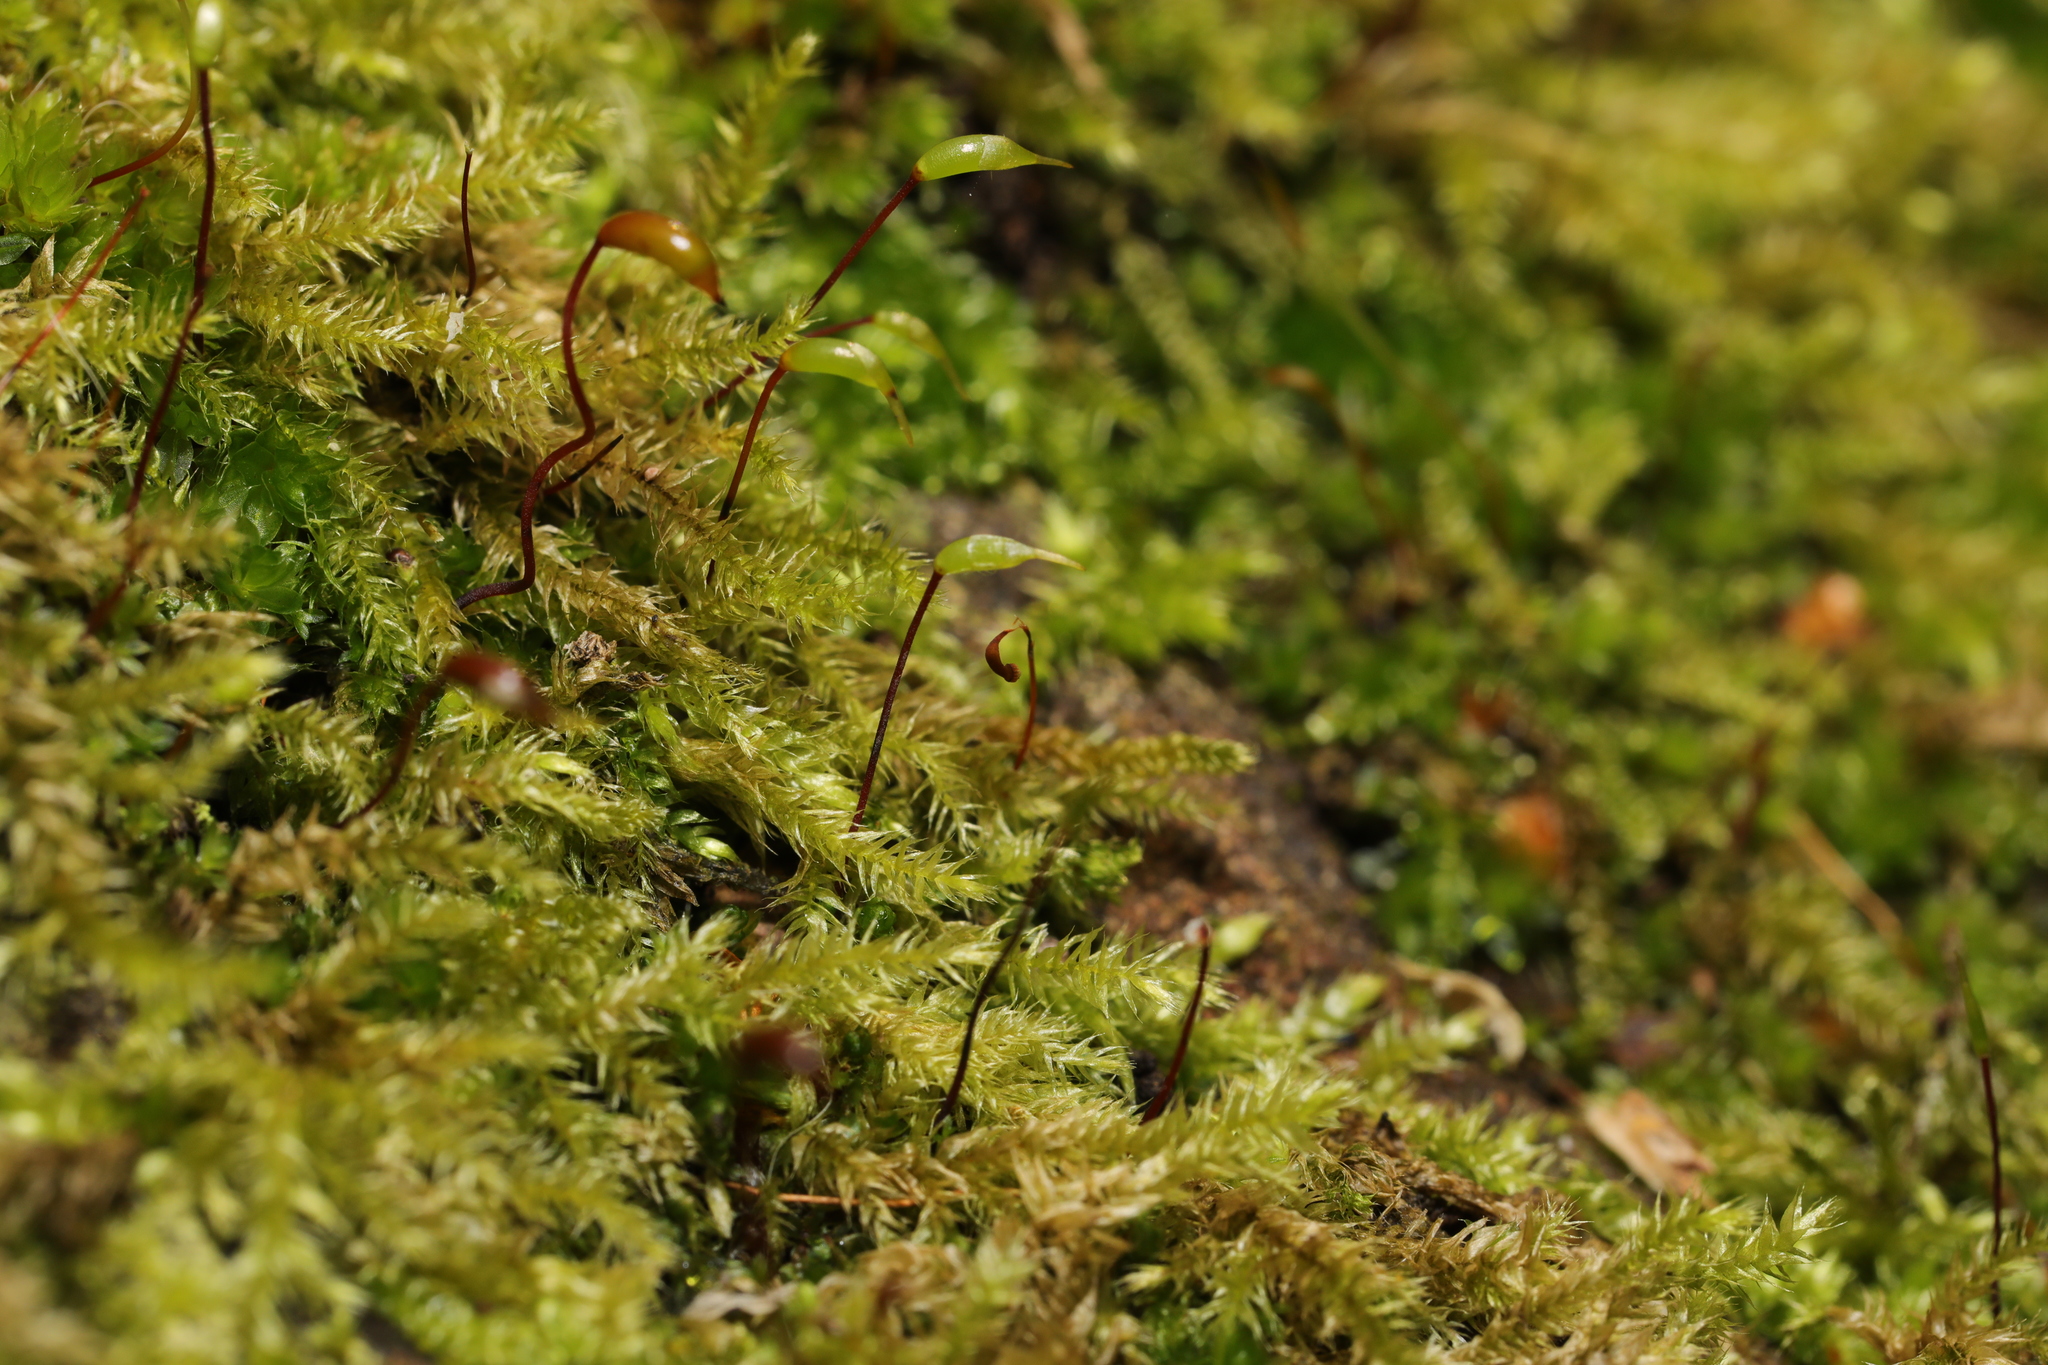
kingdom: Plantae
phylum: Bryophyta
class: Bryopsida
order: Hypnales
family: Brachytheciaceae
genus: Brachythecium
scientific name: Brachythecium rutabulum
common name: Rough-stalked feather-moss
